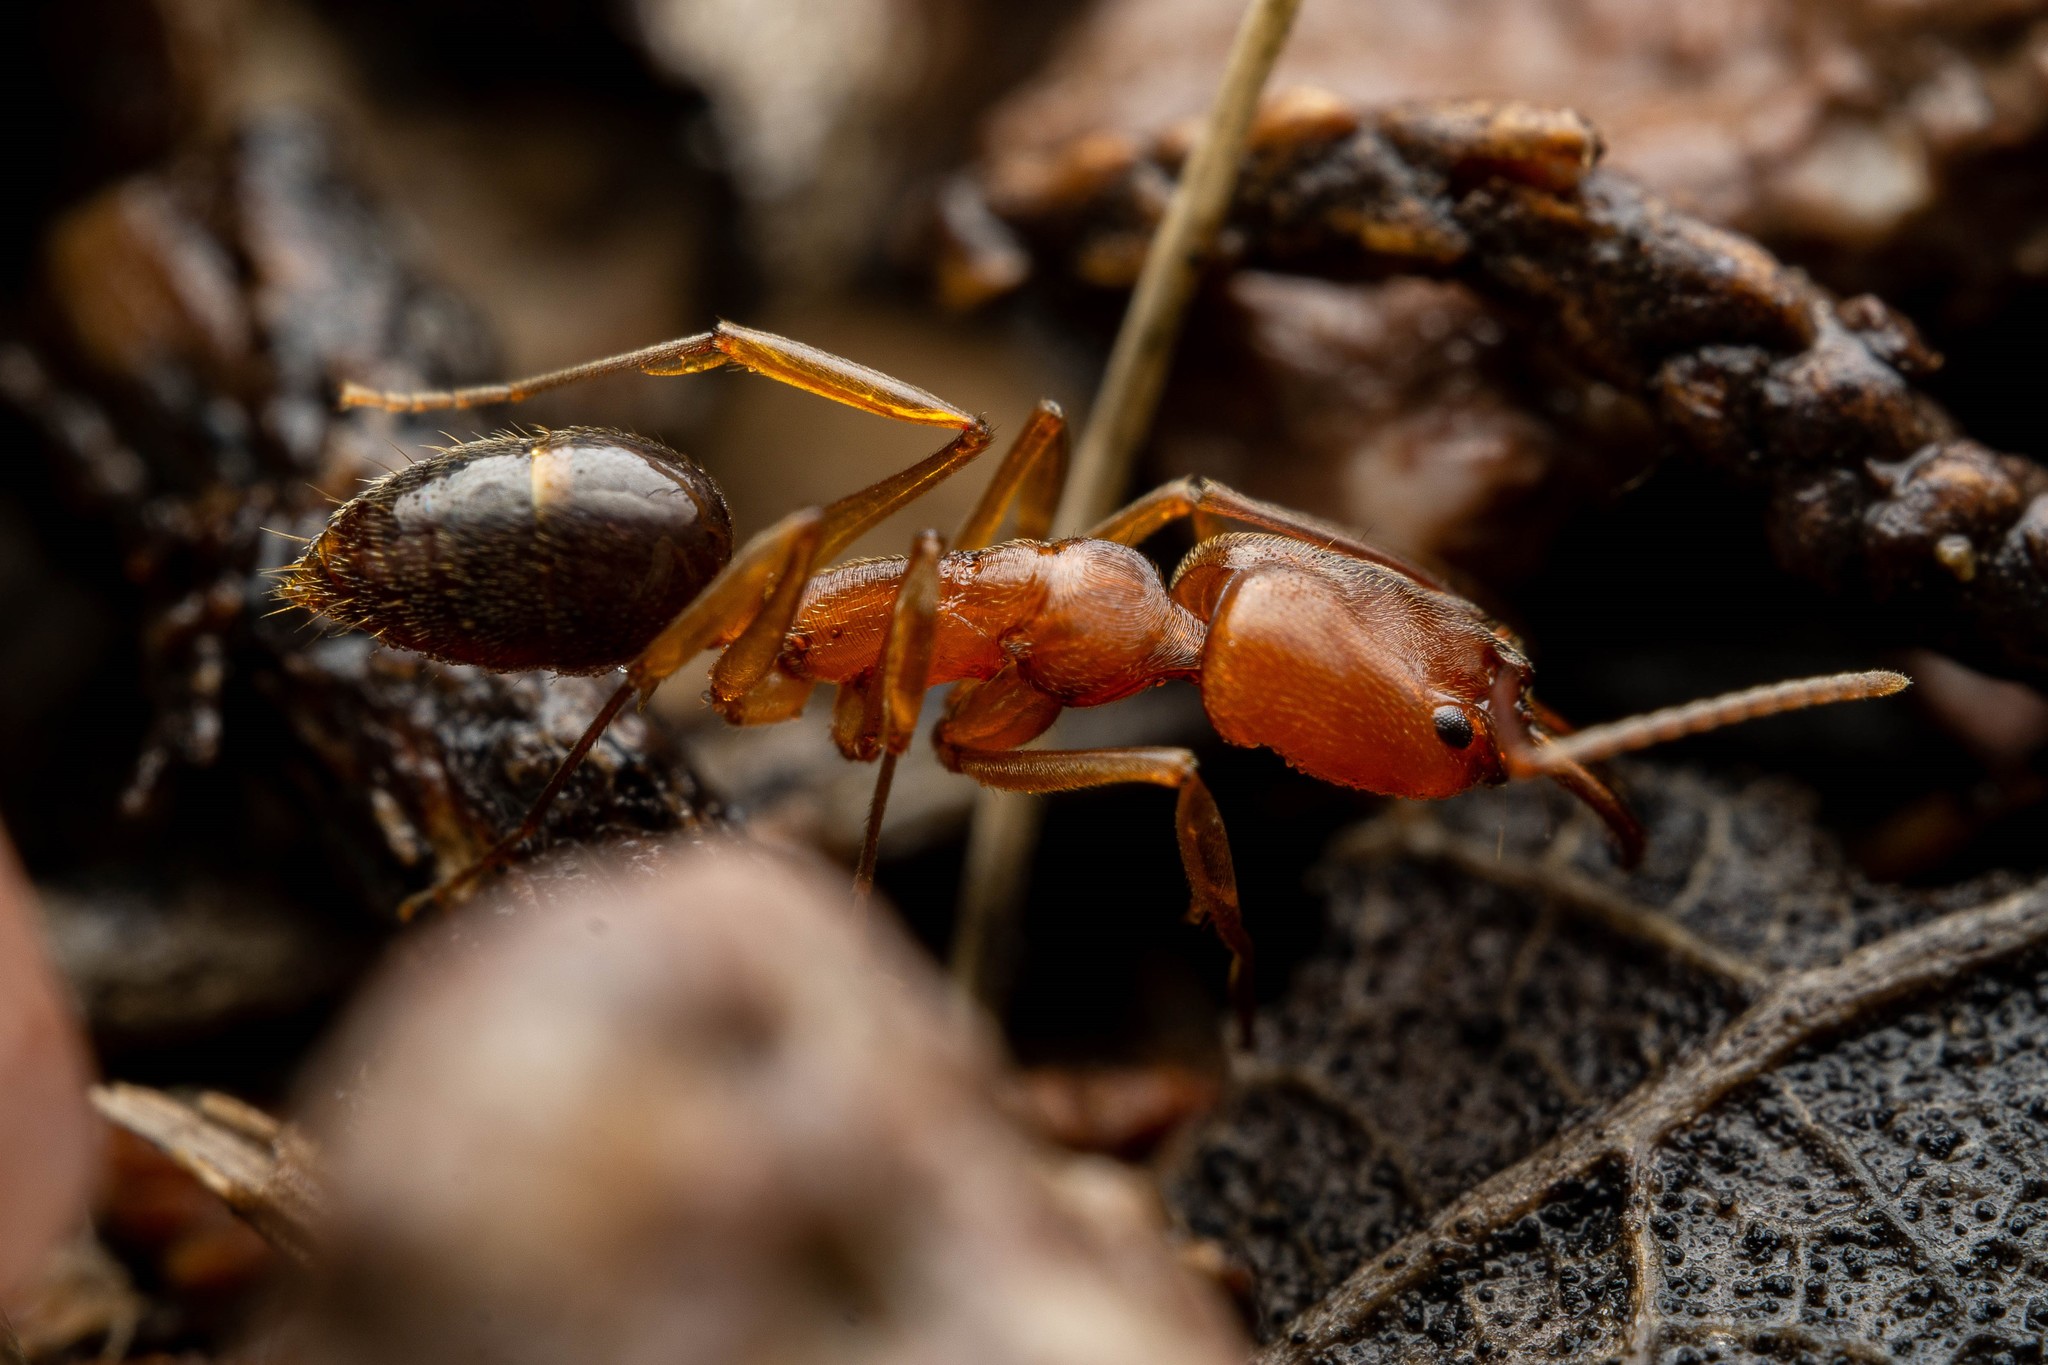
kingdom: Animalia
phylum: Arthropoda
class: Insecta
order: Hymenoptera
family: Formicidae
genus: Odontomachus
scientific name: Odontomachus clarus
